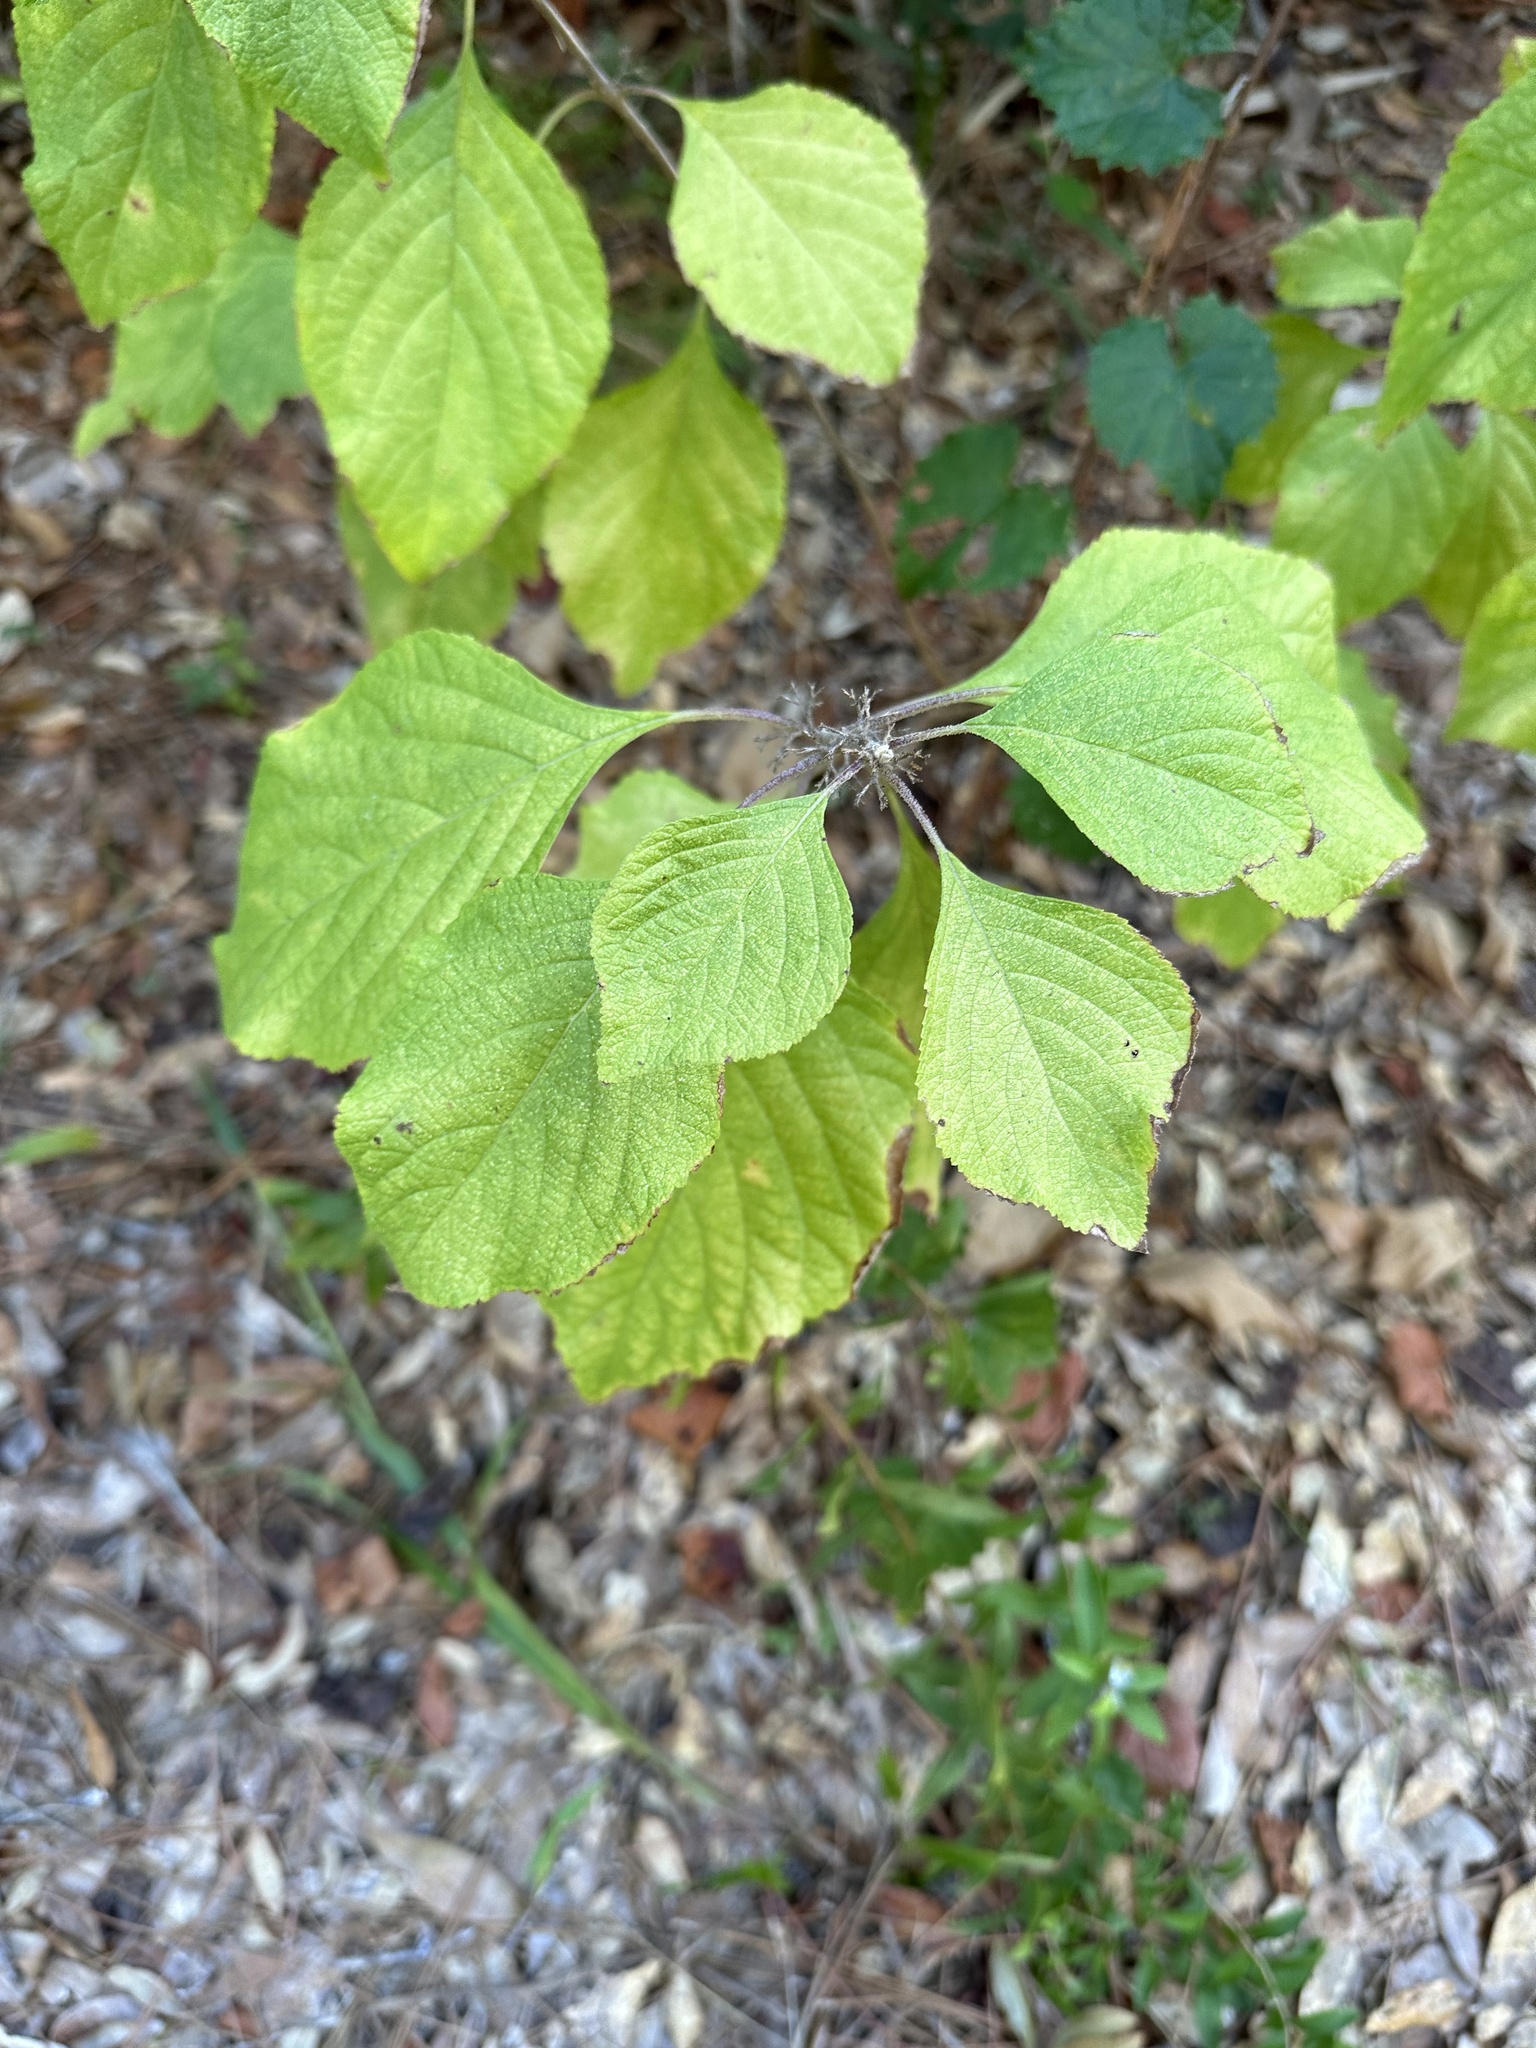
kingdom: Plantae
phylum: Tracheophyta
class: Magnoliopsida
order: Lamiales
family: Lamiaceae
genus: Callicarpa
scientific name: Callicarpa americana
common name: American beautyberry
